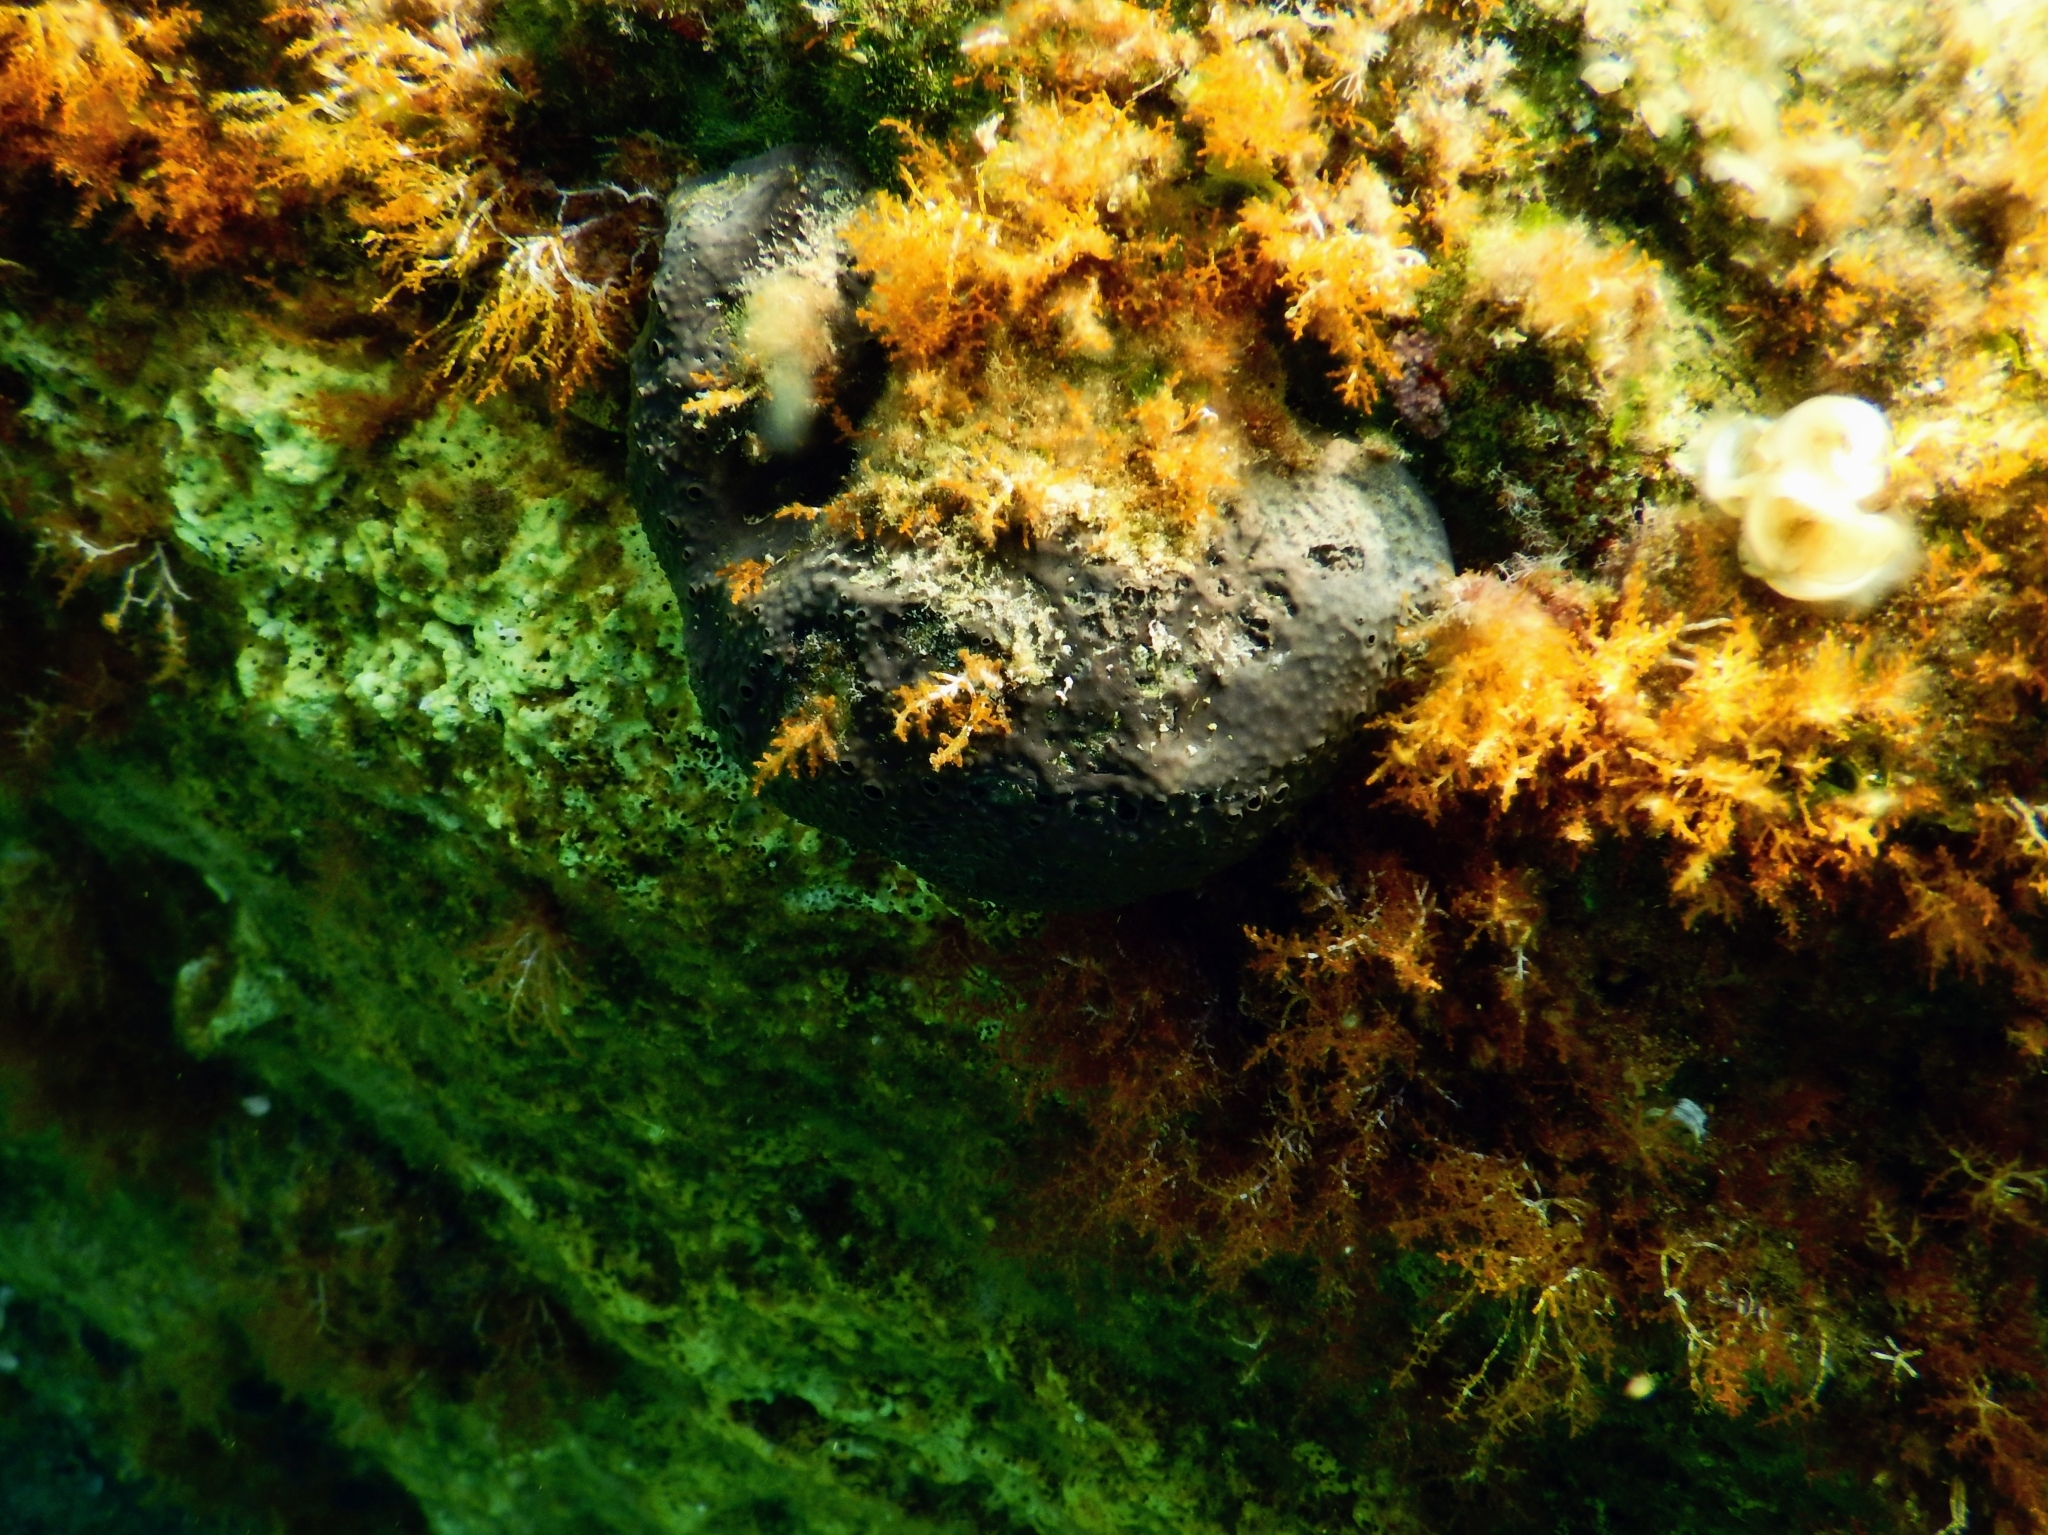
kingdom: Animalia
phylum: Porifera
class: Demospongiae
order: Dictyoceratida
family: Irciniidae
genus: Sarcotragus
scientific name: Sarcotragus spinosulus
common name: Black leather sponge
